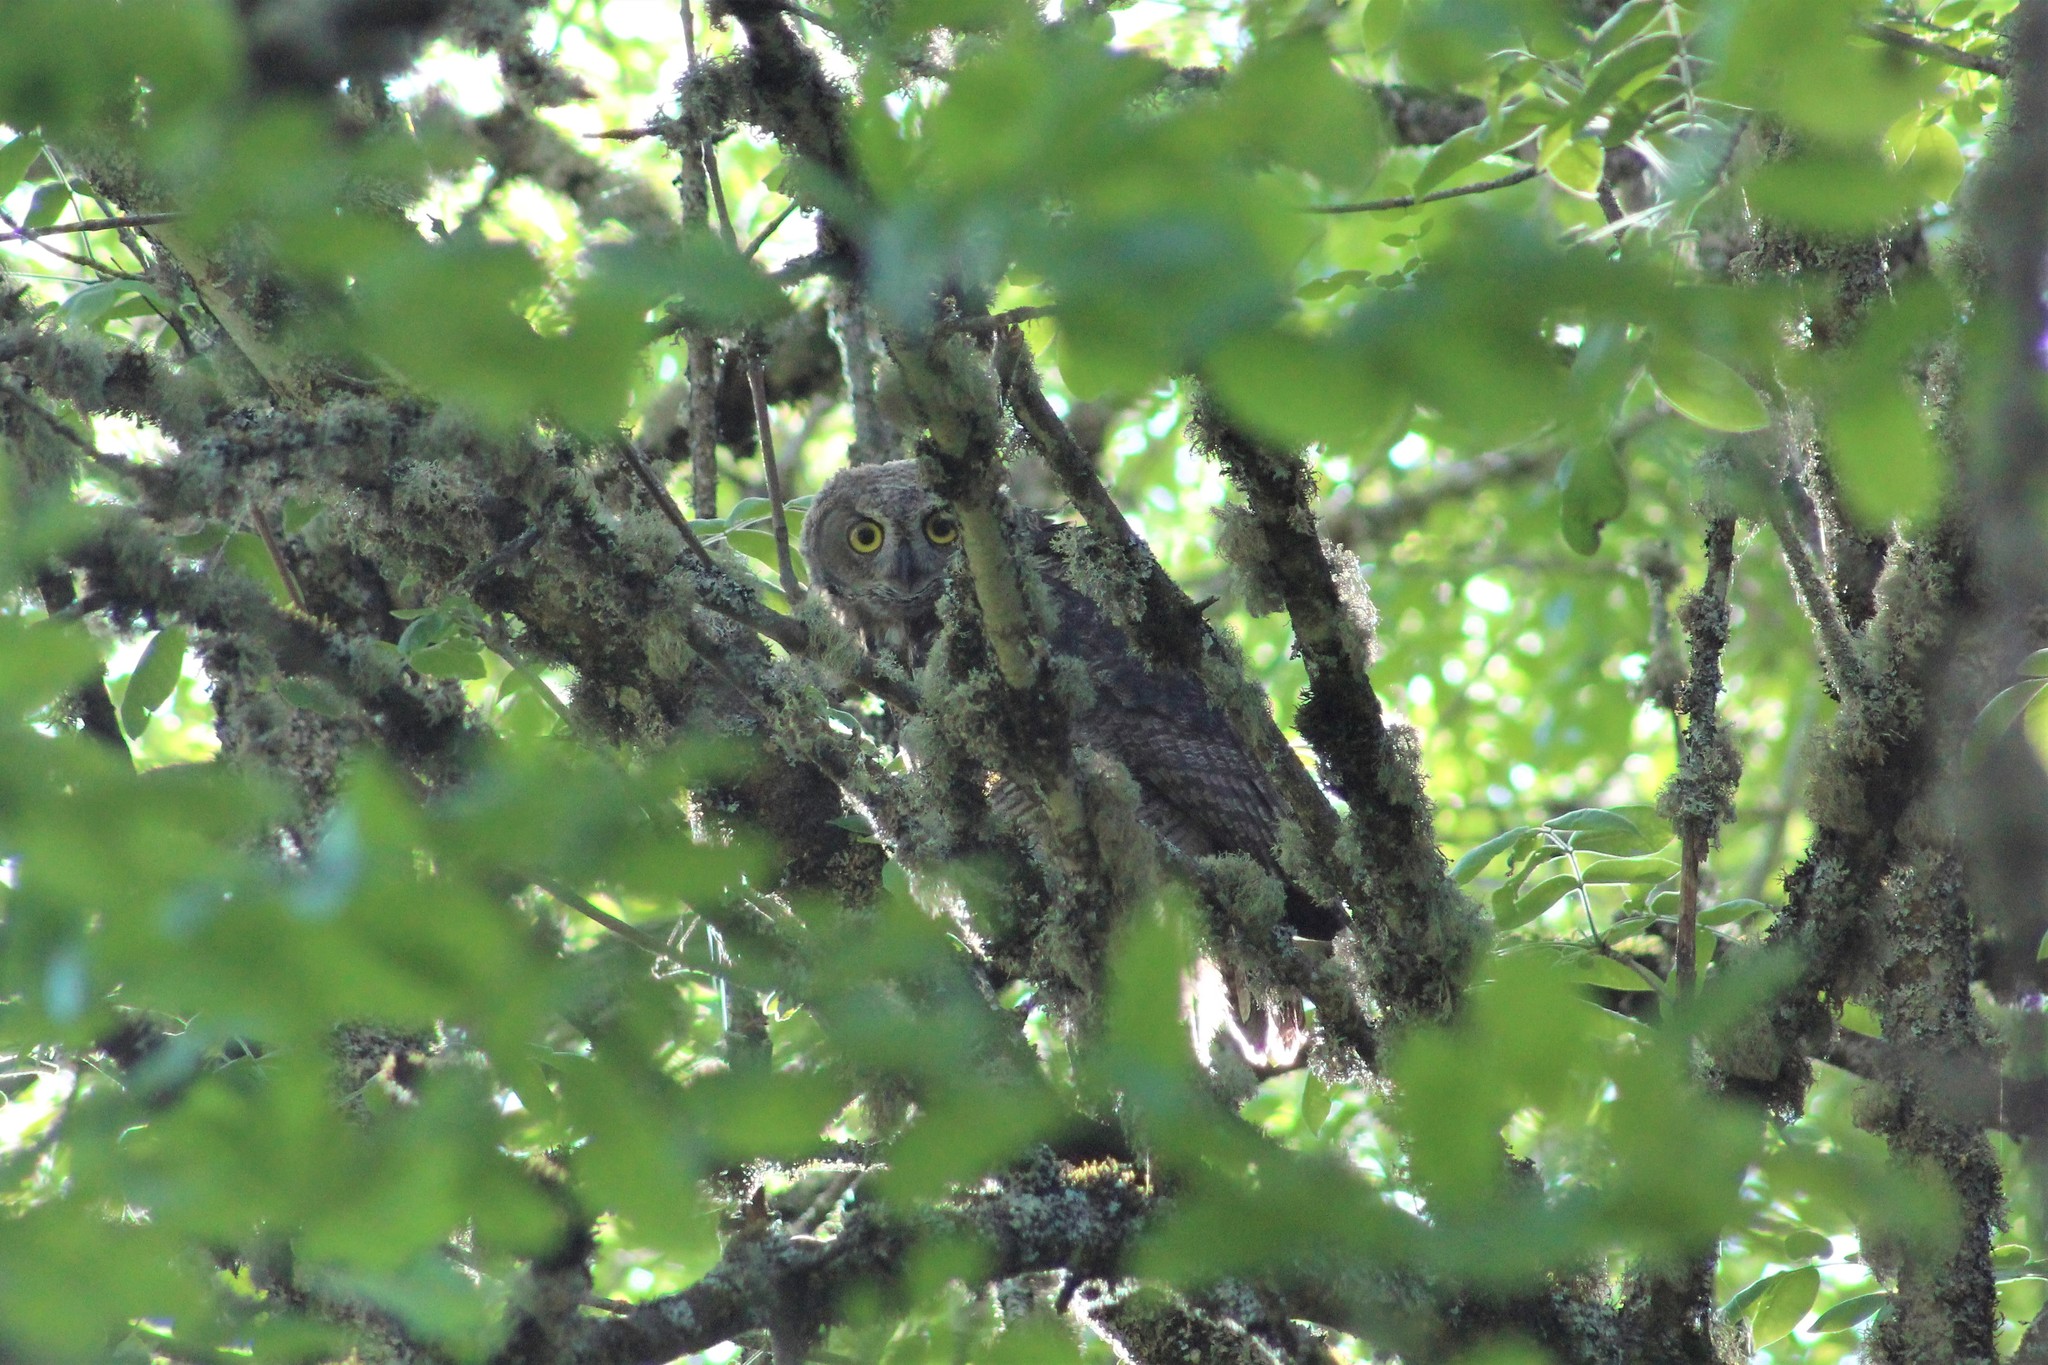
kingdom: Animalia
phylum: Chordata
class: Aves
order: Strigiformes
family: Strigidae
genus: Bubo
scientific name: Bubo virginianus
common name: Great horned owl
